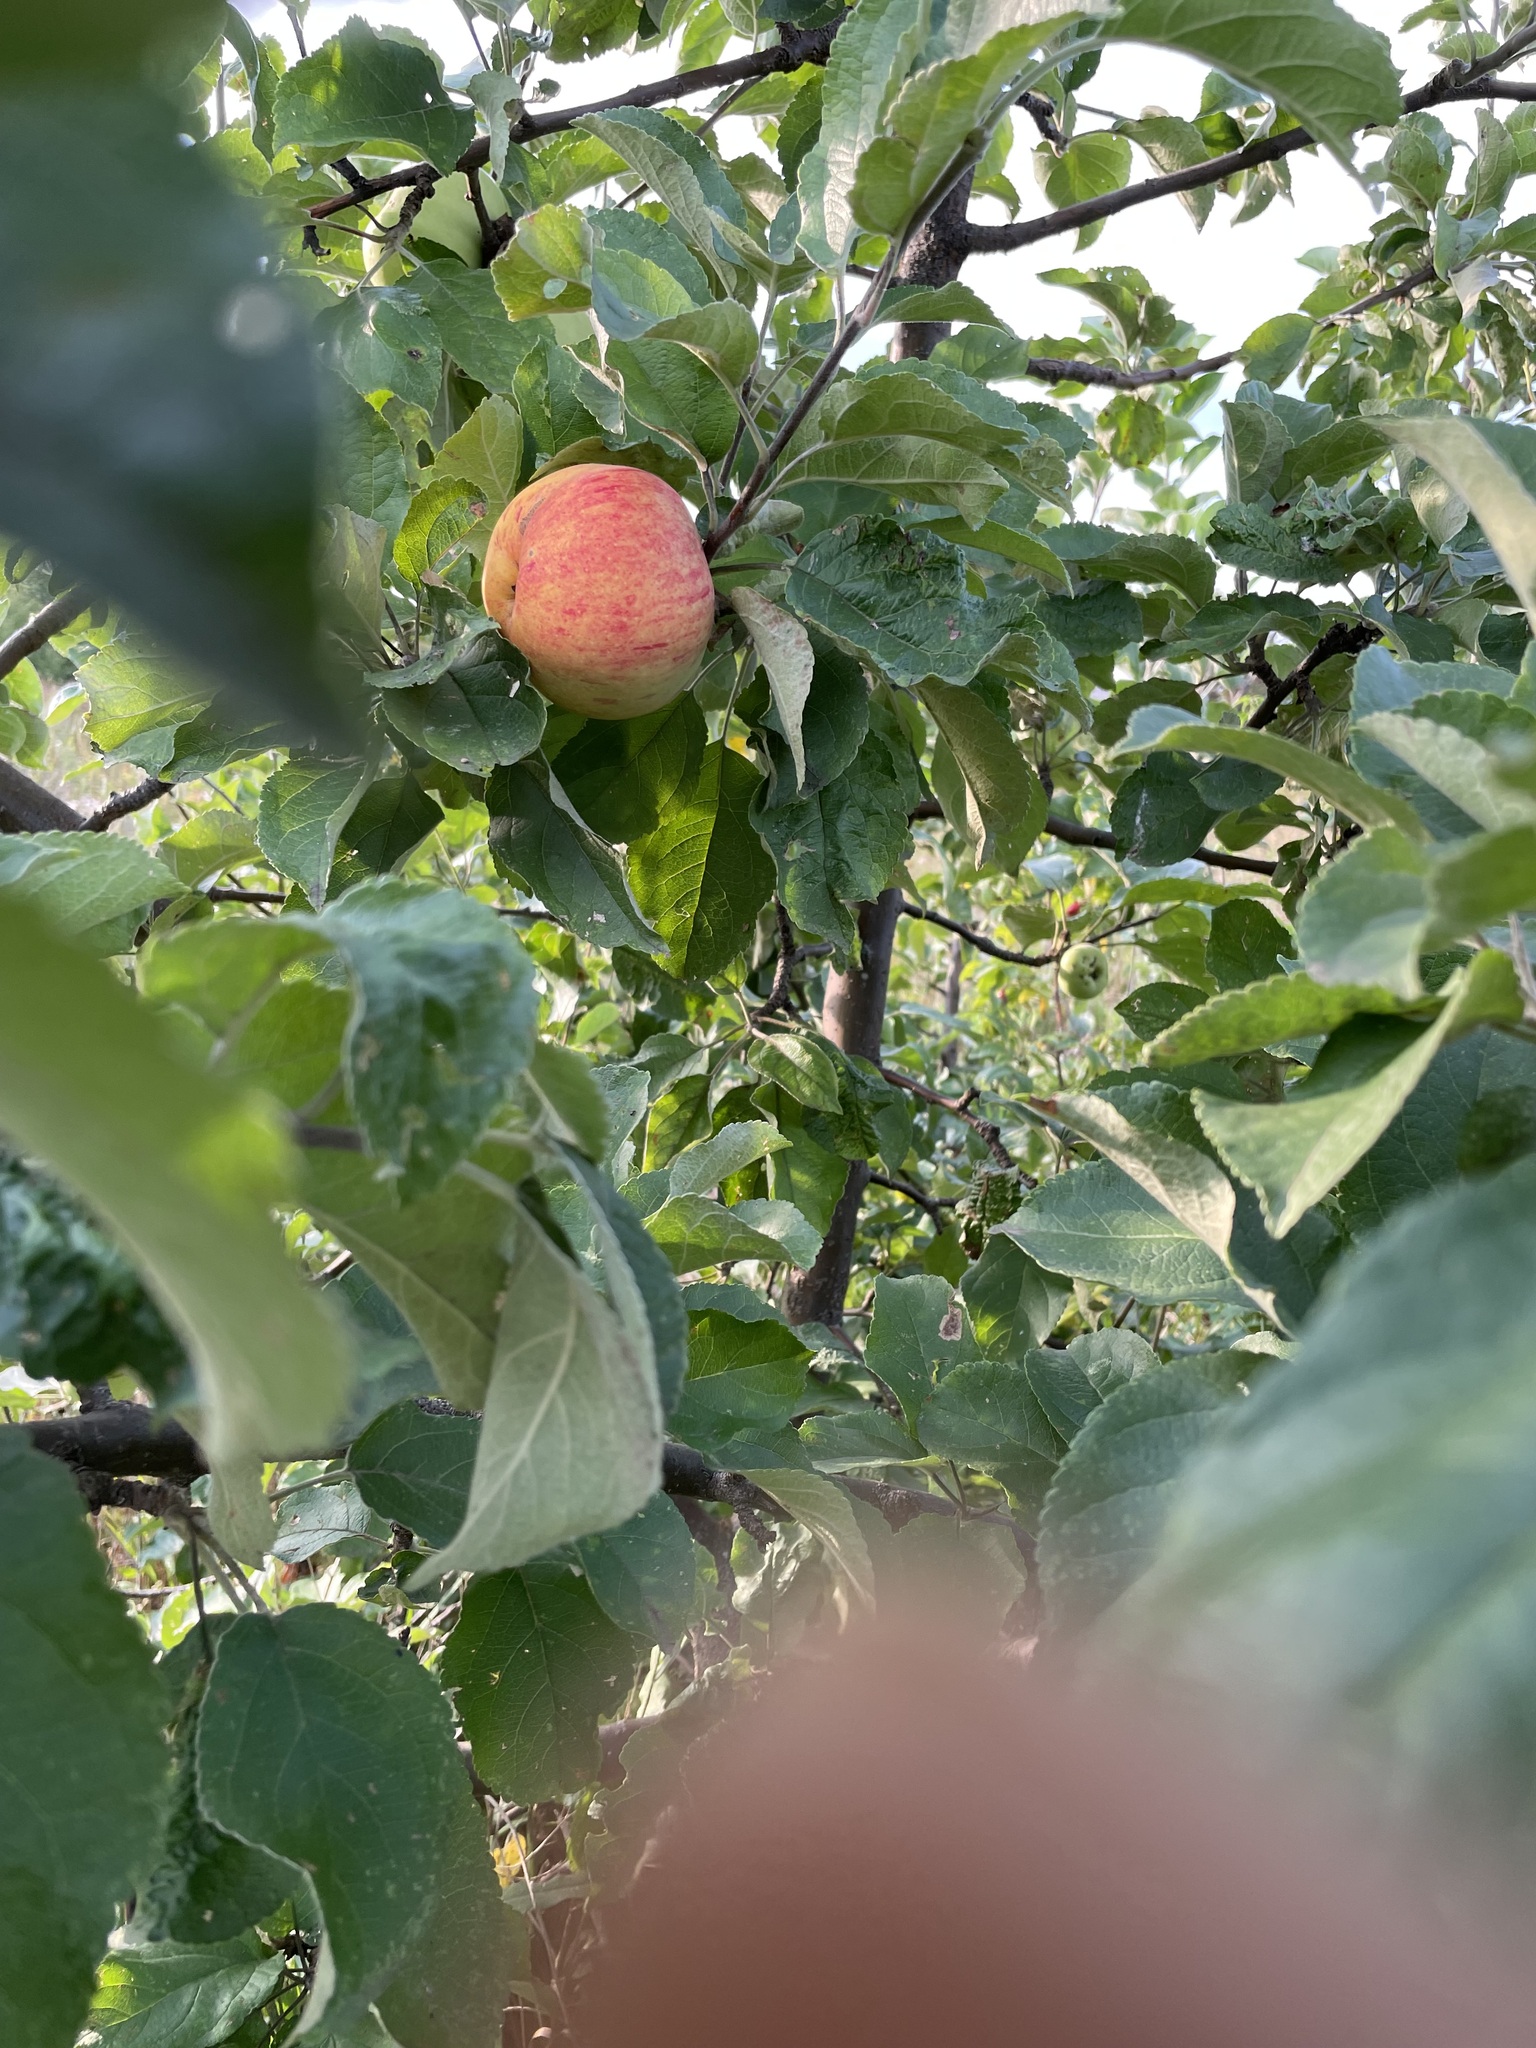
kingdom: Plantae
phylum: Tracheophyta
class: Magnoliopsida
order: Rosales
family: Rosaceae
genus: Malus
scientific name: Malus domestica
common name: Apple
